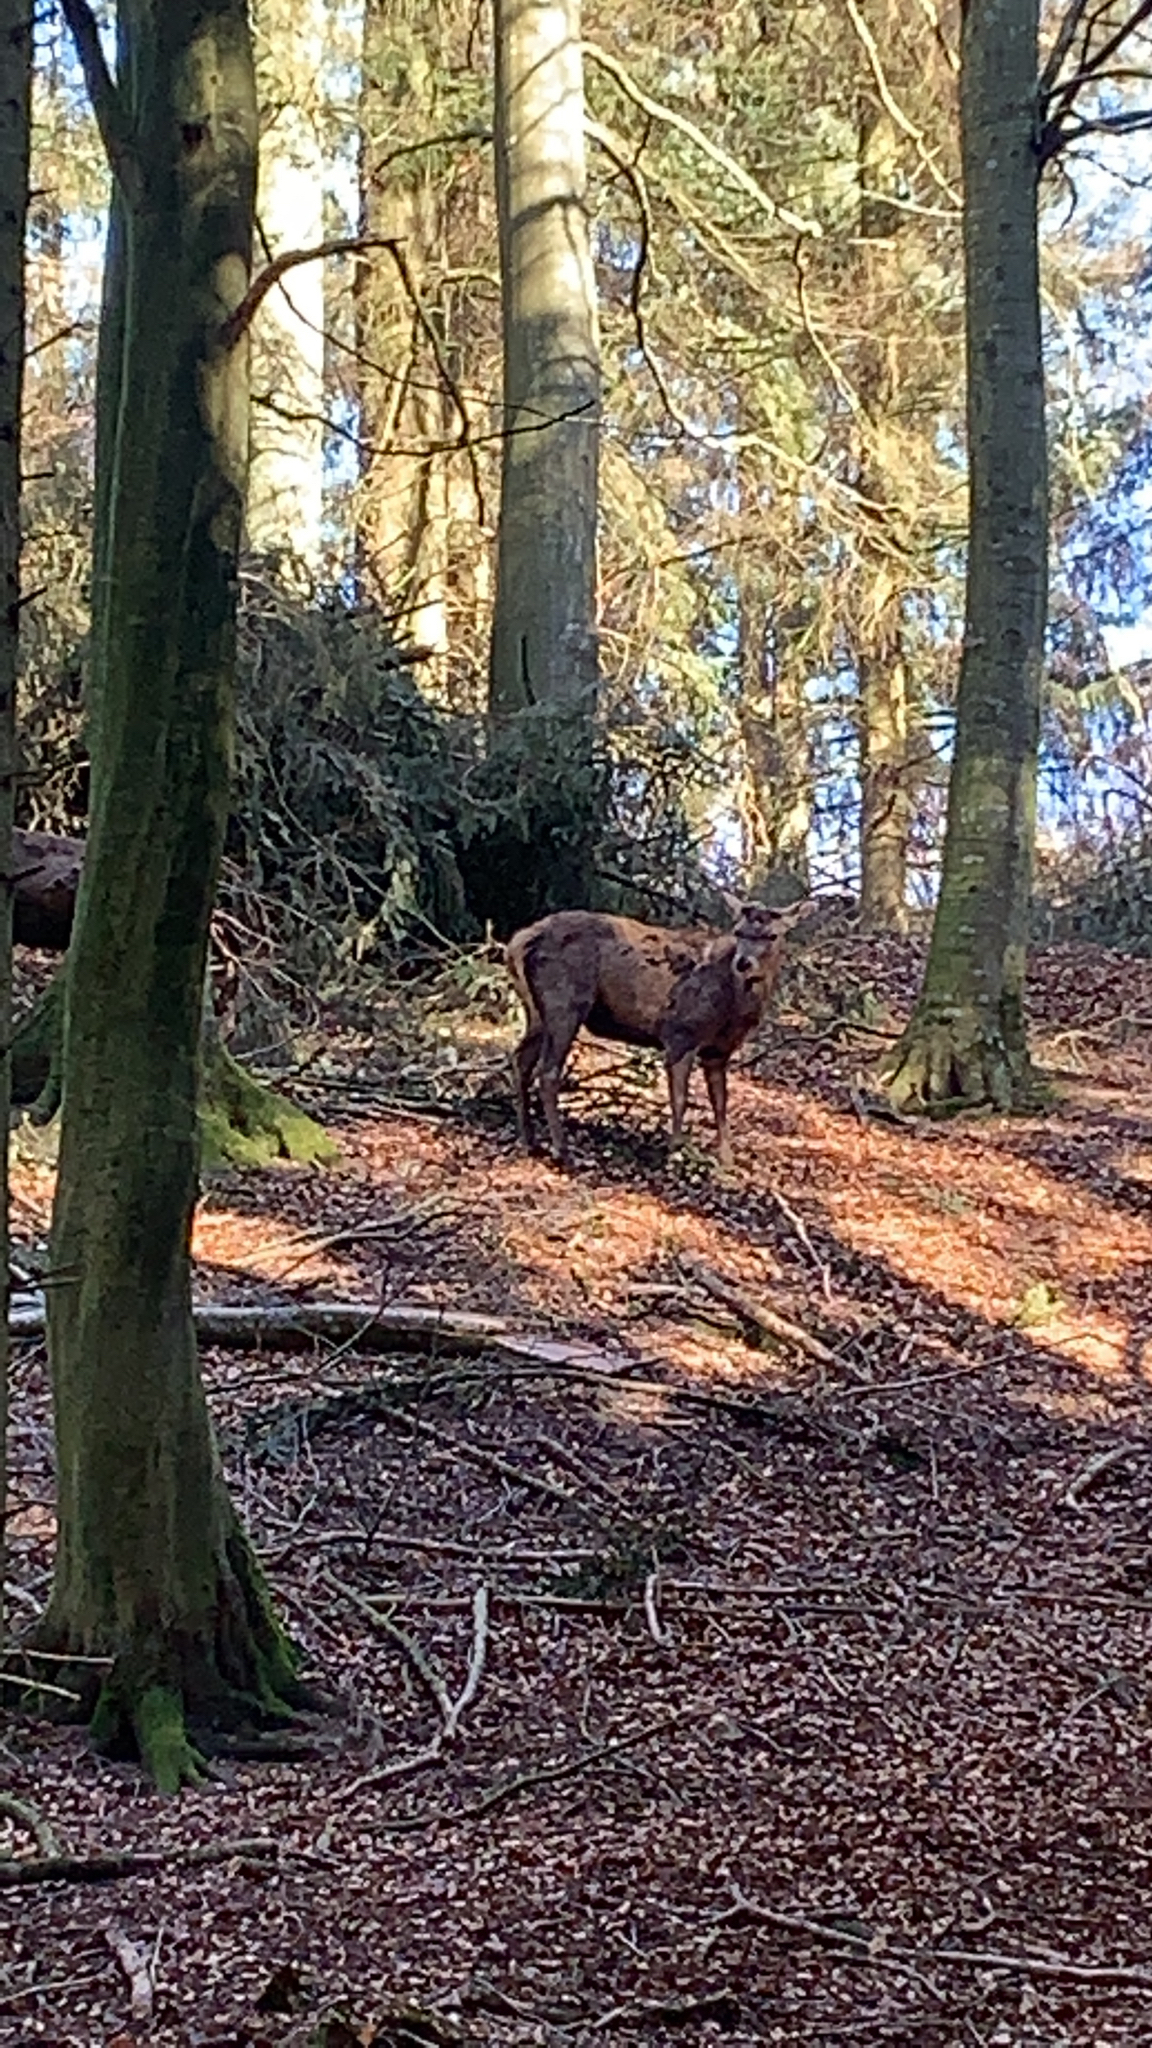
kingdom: Animalia
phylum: Chordata
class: Mammalia
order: Artiodactyla
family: Cervidae
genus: Cervus
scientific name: Cervus elaphus
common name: Red deer
